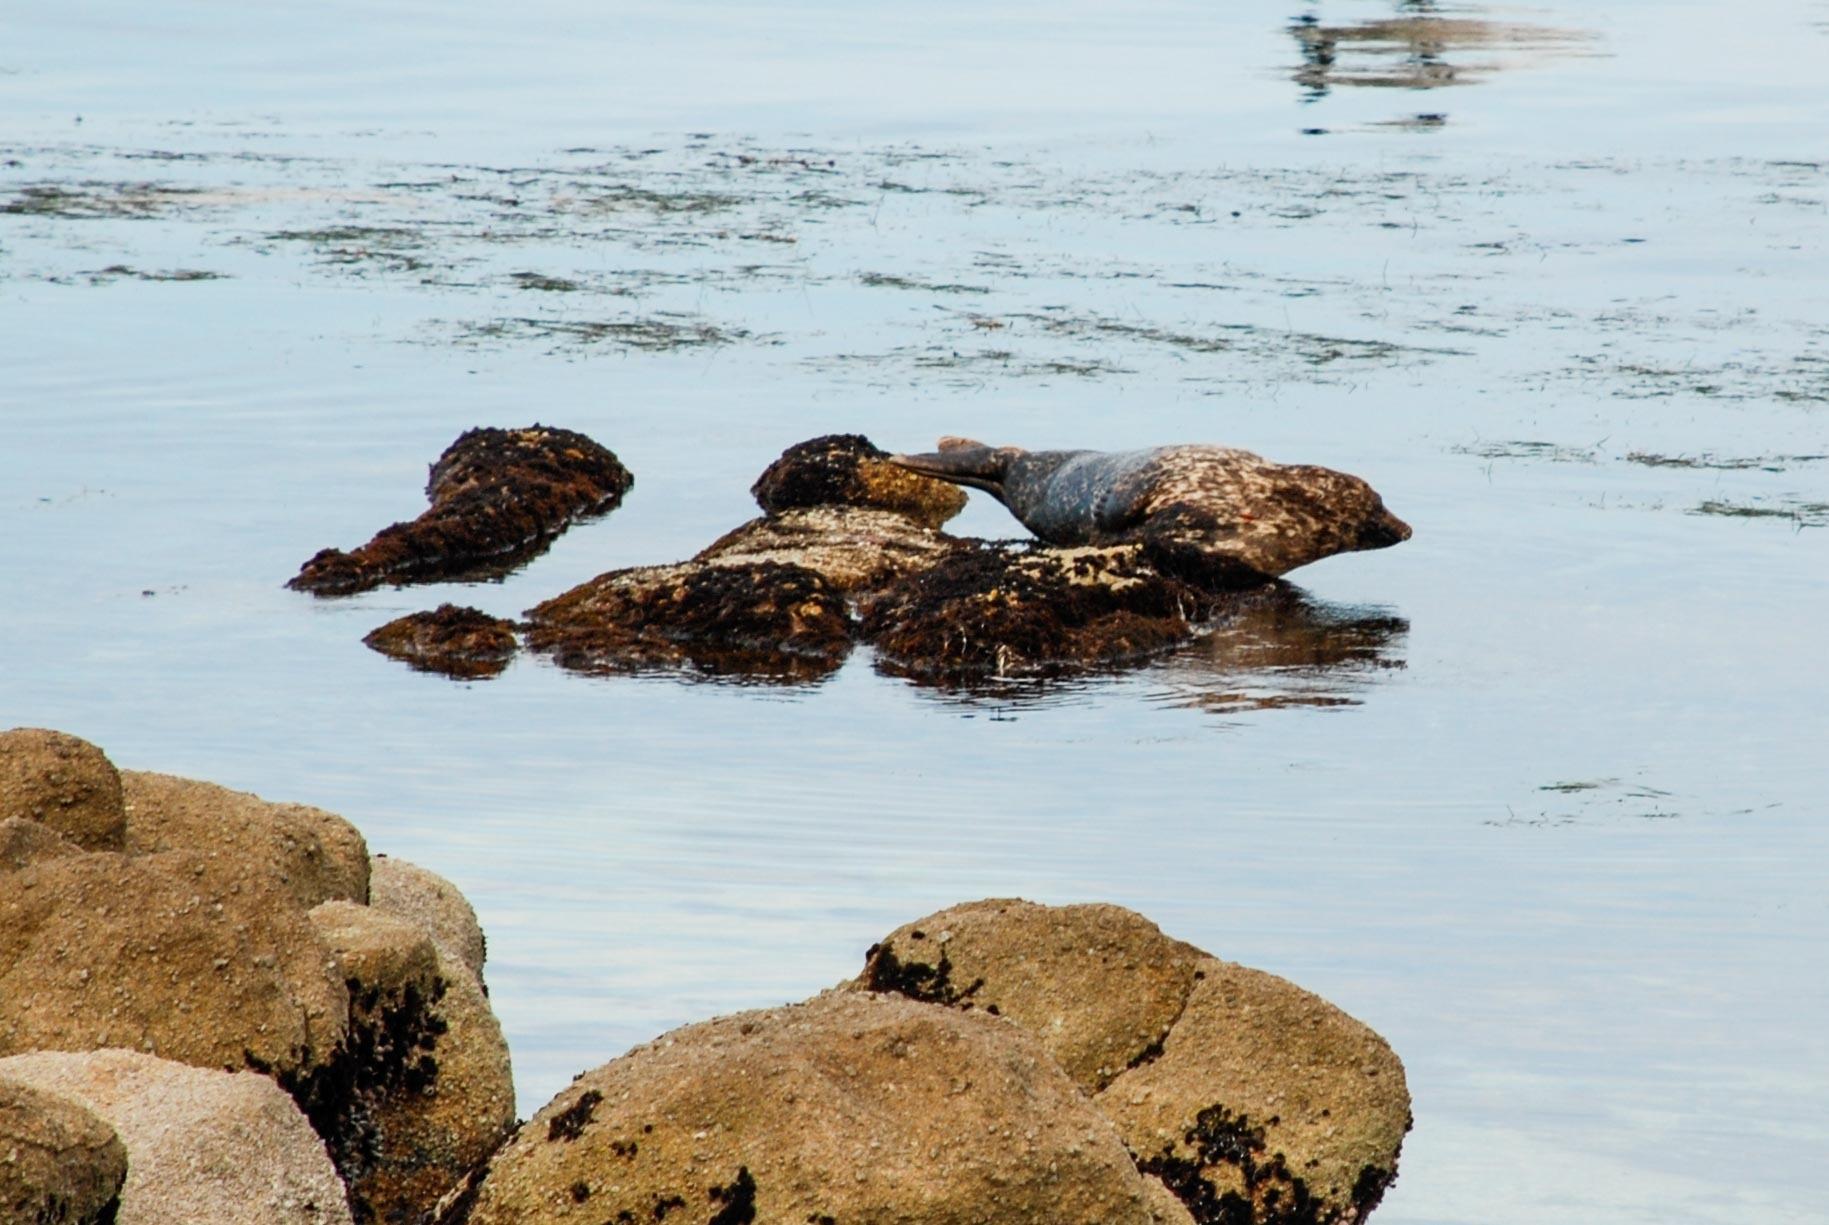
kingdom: Animalia
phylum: Chordata
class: Mammalia
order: Carnivora
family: Phocidae
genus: Phoca
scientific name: Phoca vitulina
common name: Harbor seal
